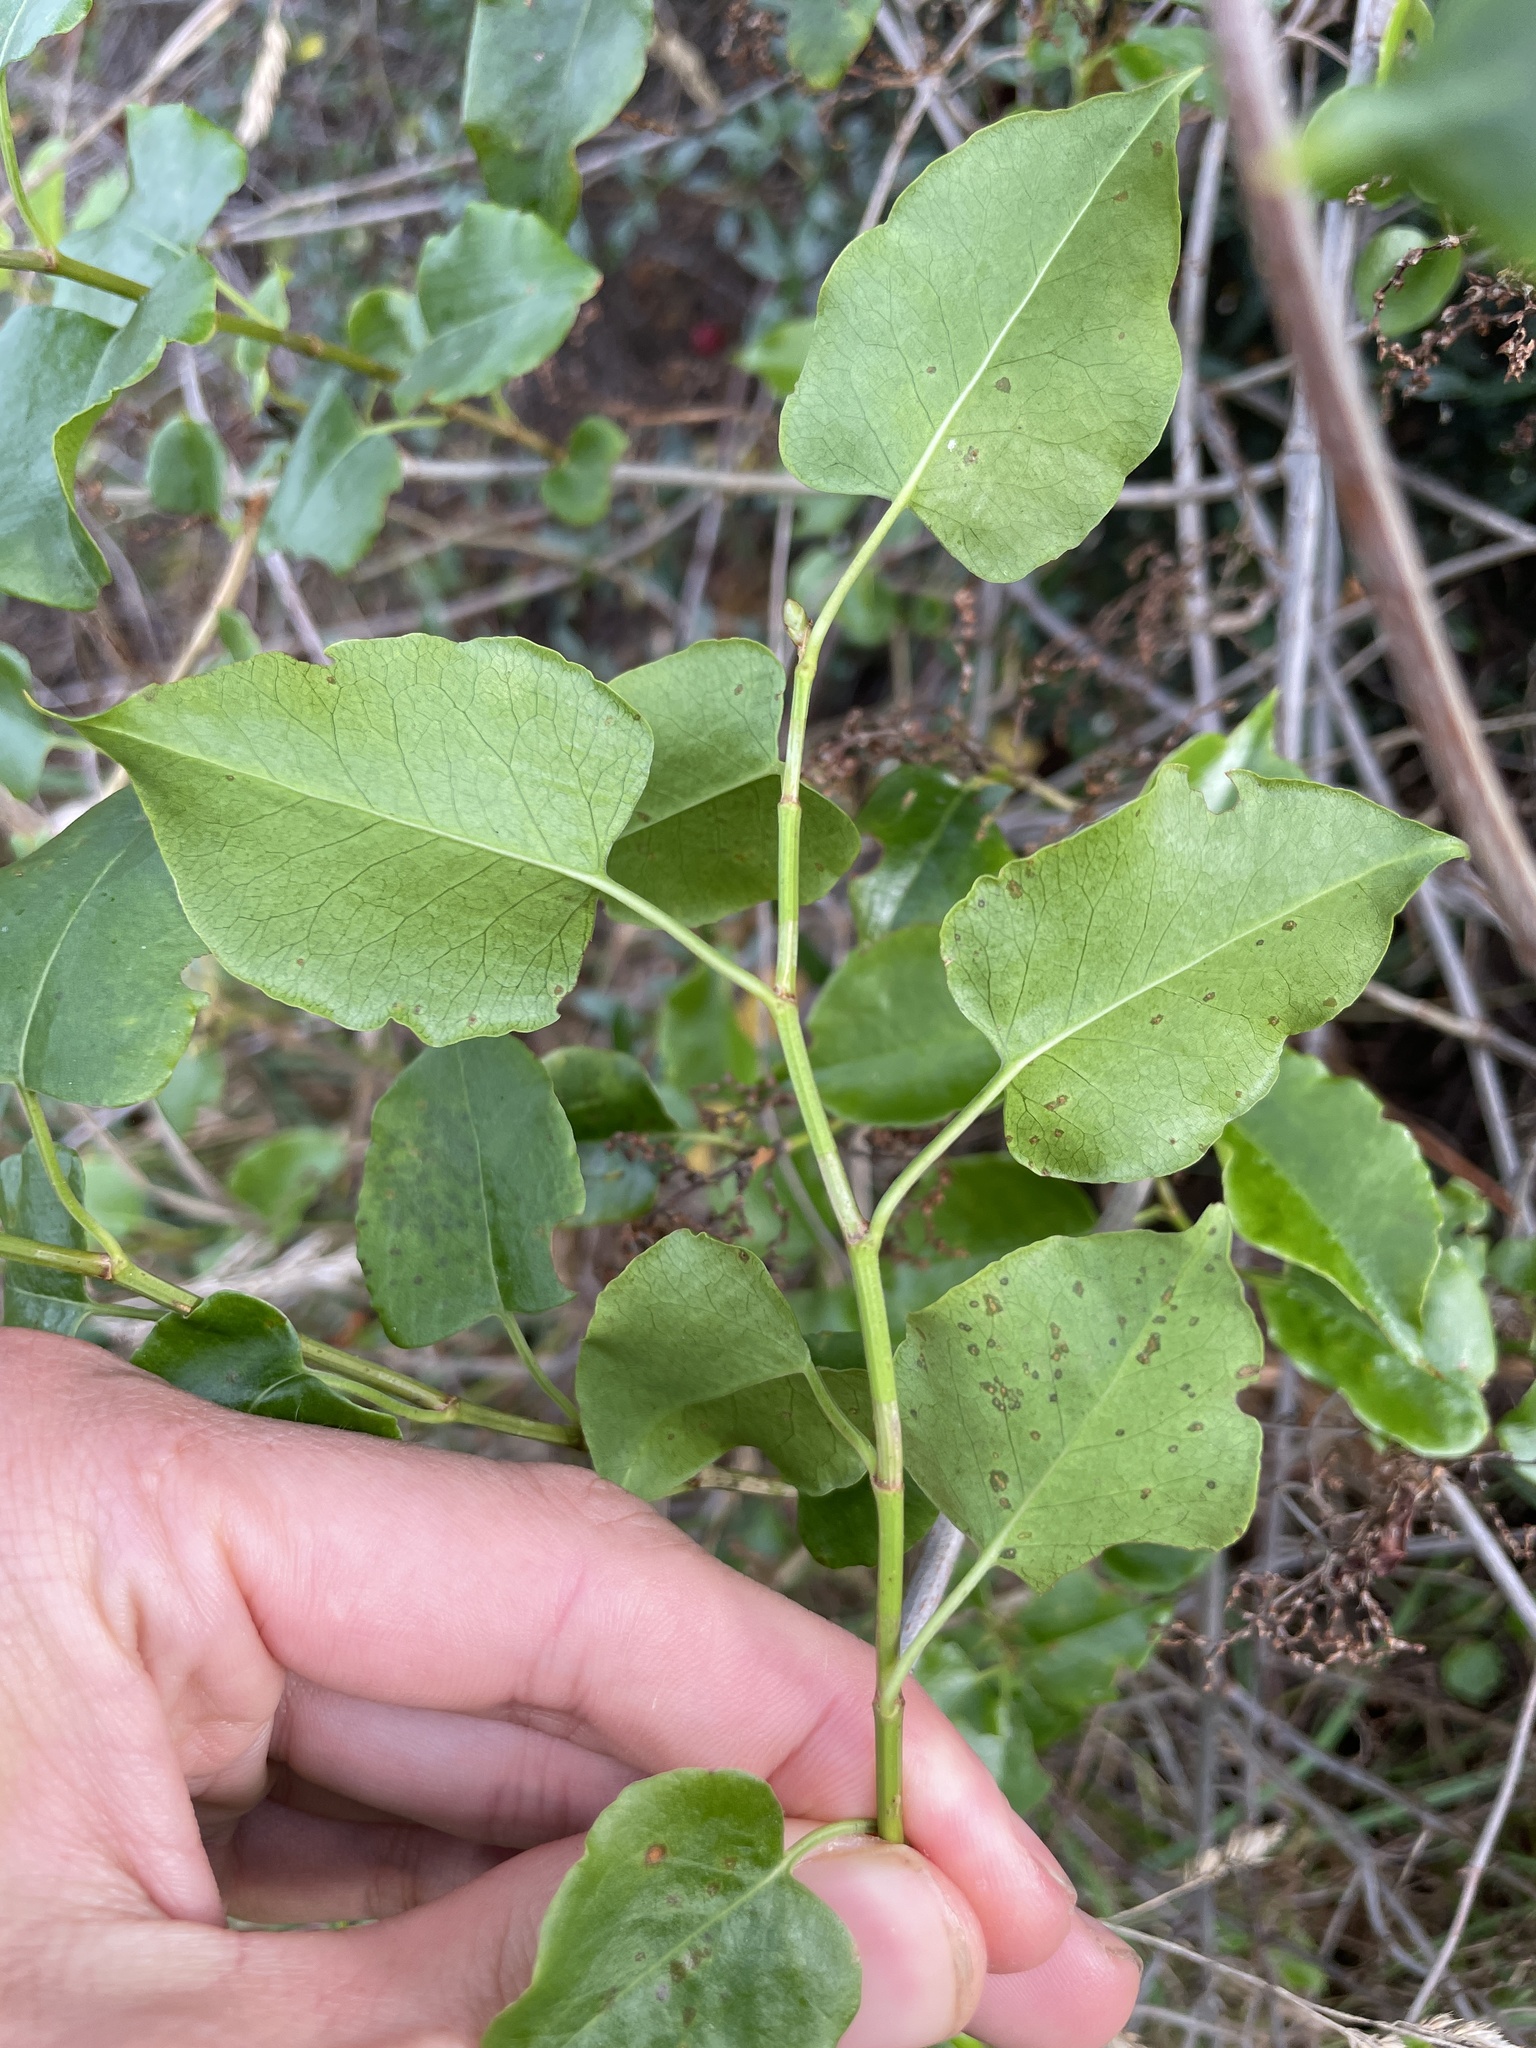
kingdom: Plantae
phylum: Tracheophyta
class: Magnoliopsida
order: Caryophyllales
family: Polygonaceae
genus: Muehlenbeckia
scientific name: Muehlenbeckia australis
